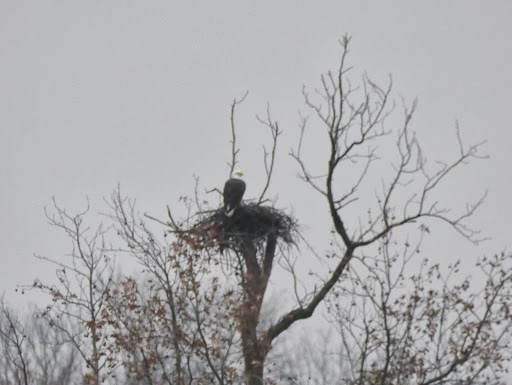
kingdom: Animalia
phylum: Chordata
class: Aves
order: Accipitriformes
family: Accipitridae
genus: Haliaeetus
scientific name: Haliaeetus leucocephalus
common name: Bald eagle
